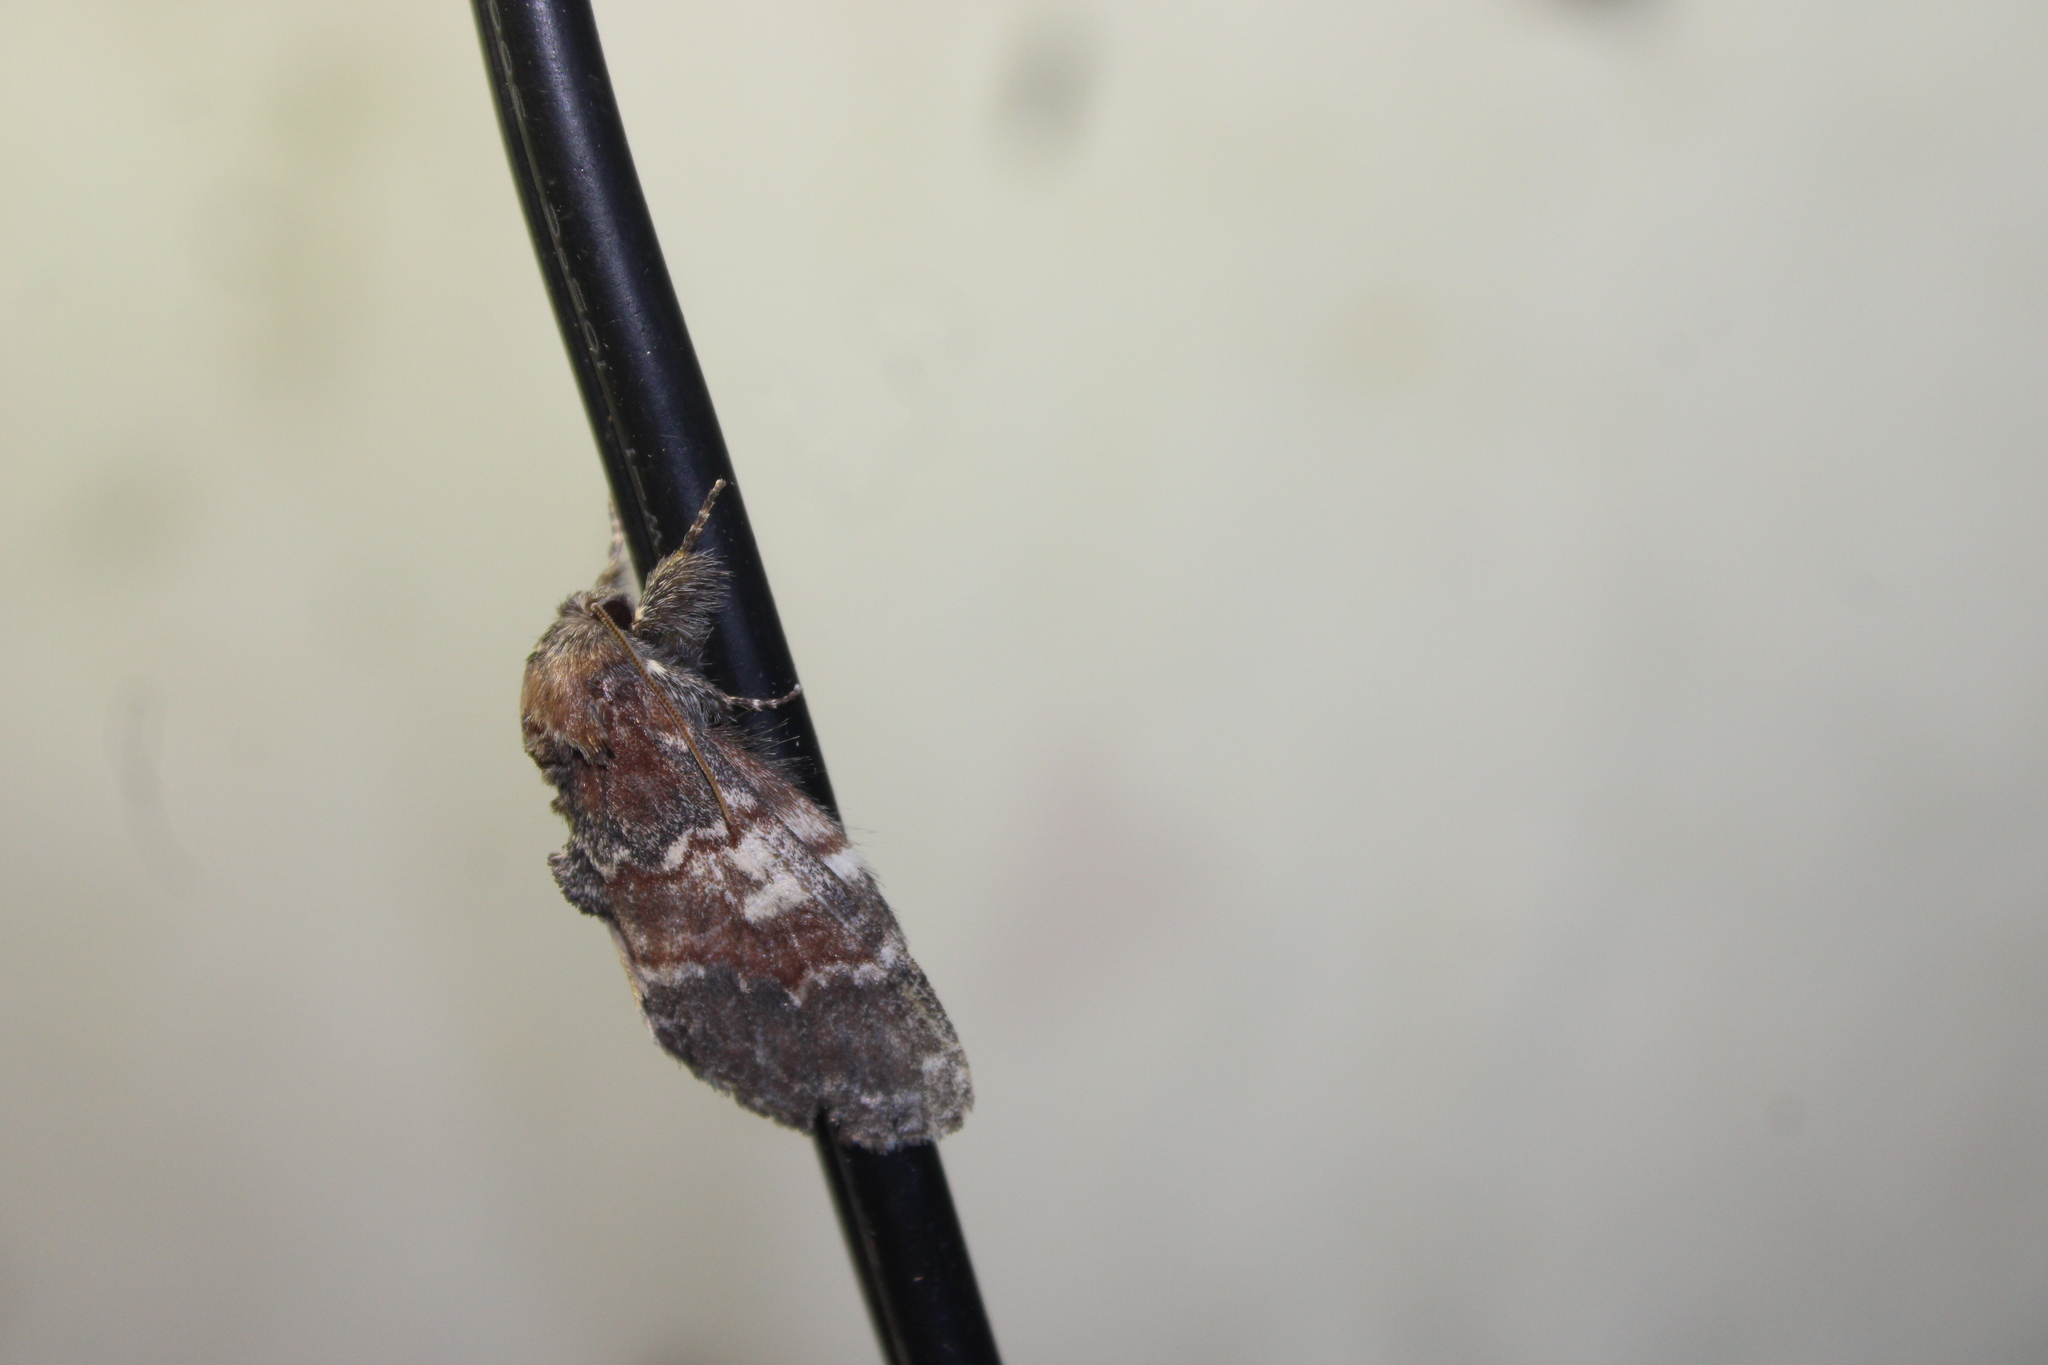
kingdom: Animalia
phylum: Arthropoda
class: Insecta
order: Lepidoptera
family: Notodontidae
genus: Peridea
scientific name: Peridea ferruginea
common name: Chocolate prominent
